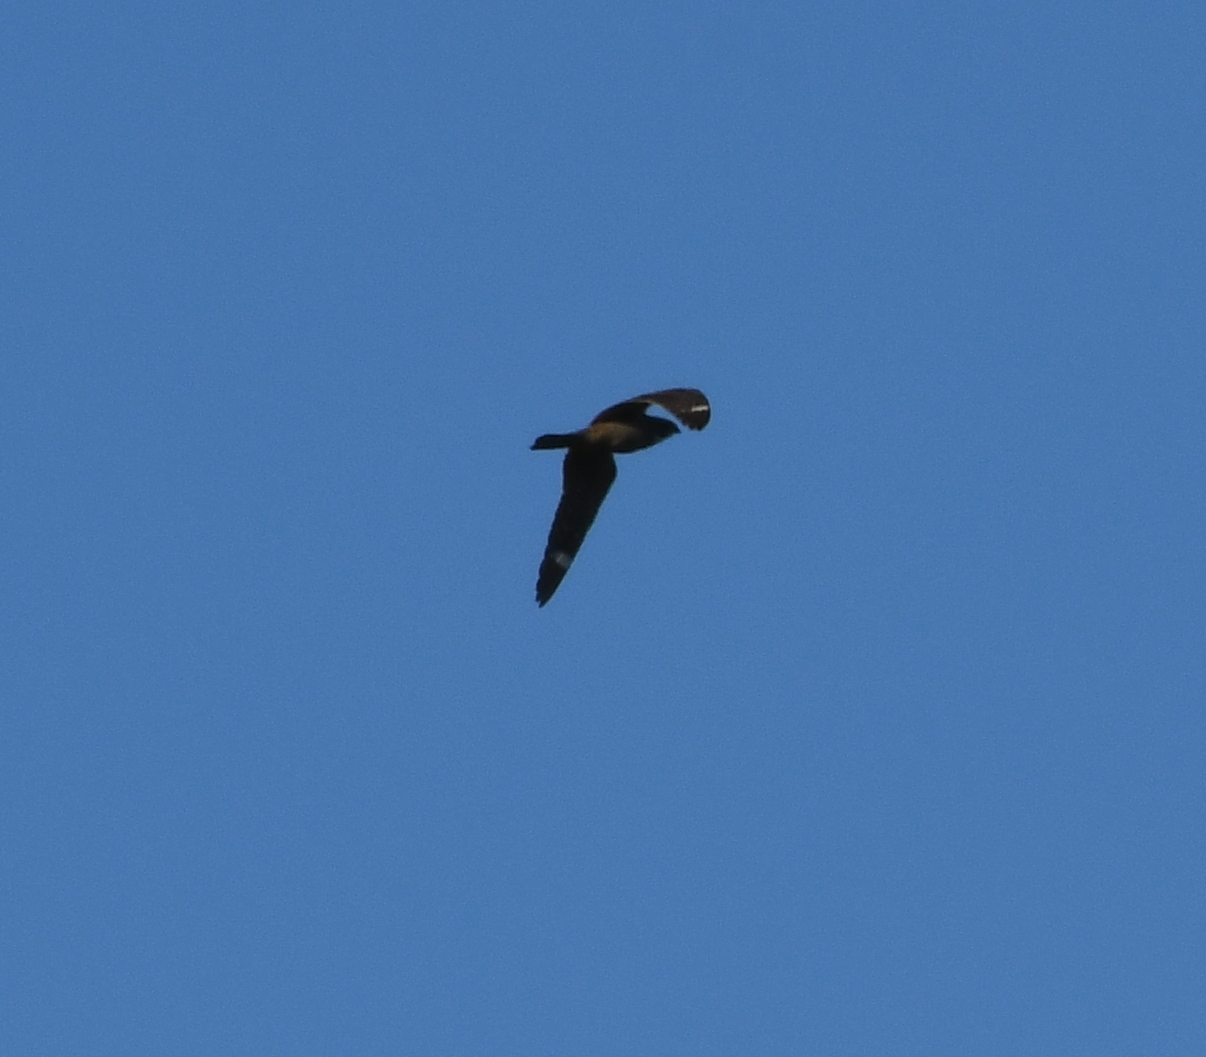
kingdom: Animalia
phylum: Chordata
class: Aves
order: Caprimulgiformes
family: Caprimulgidae
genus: Chordeiles
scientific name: Chordeiles acutipennis
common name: Lesser nighthawk
